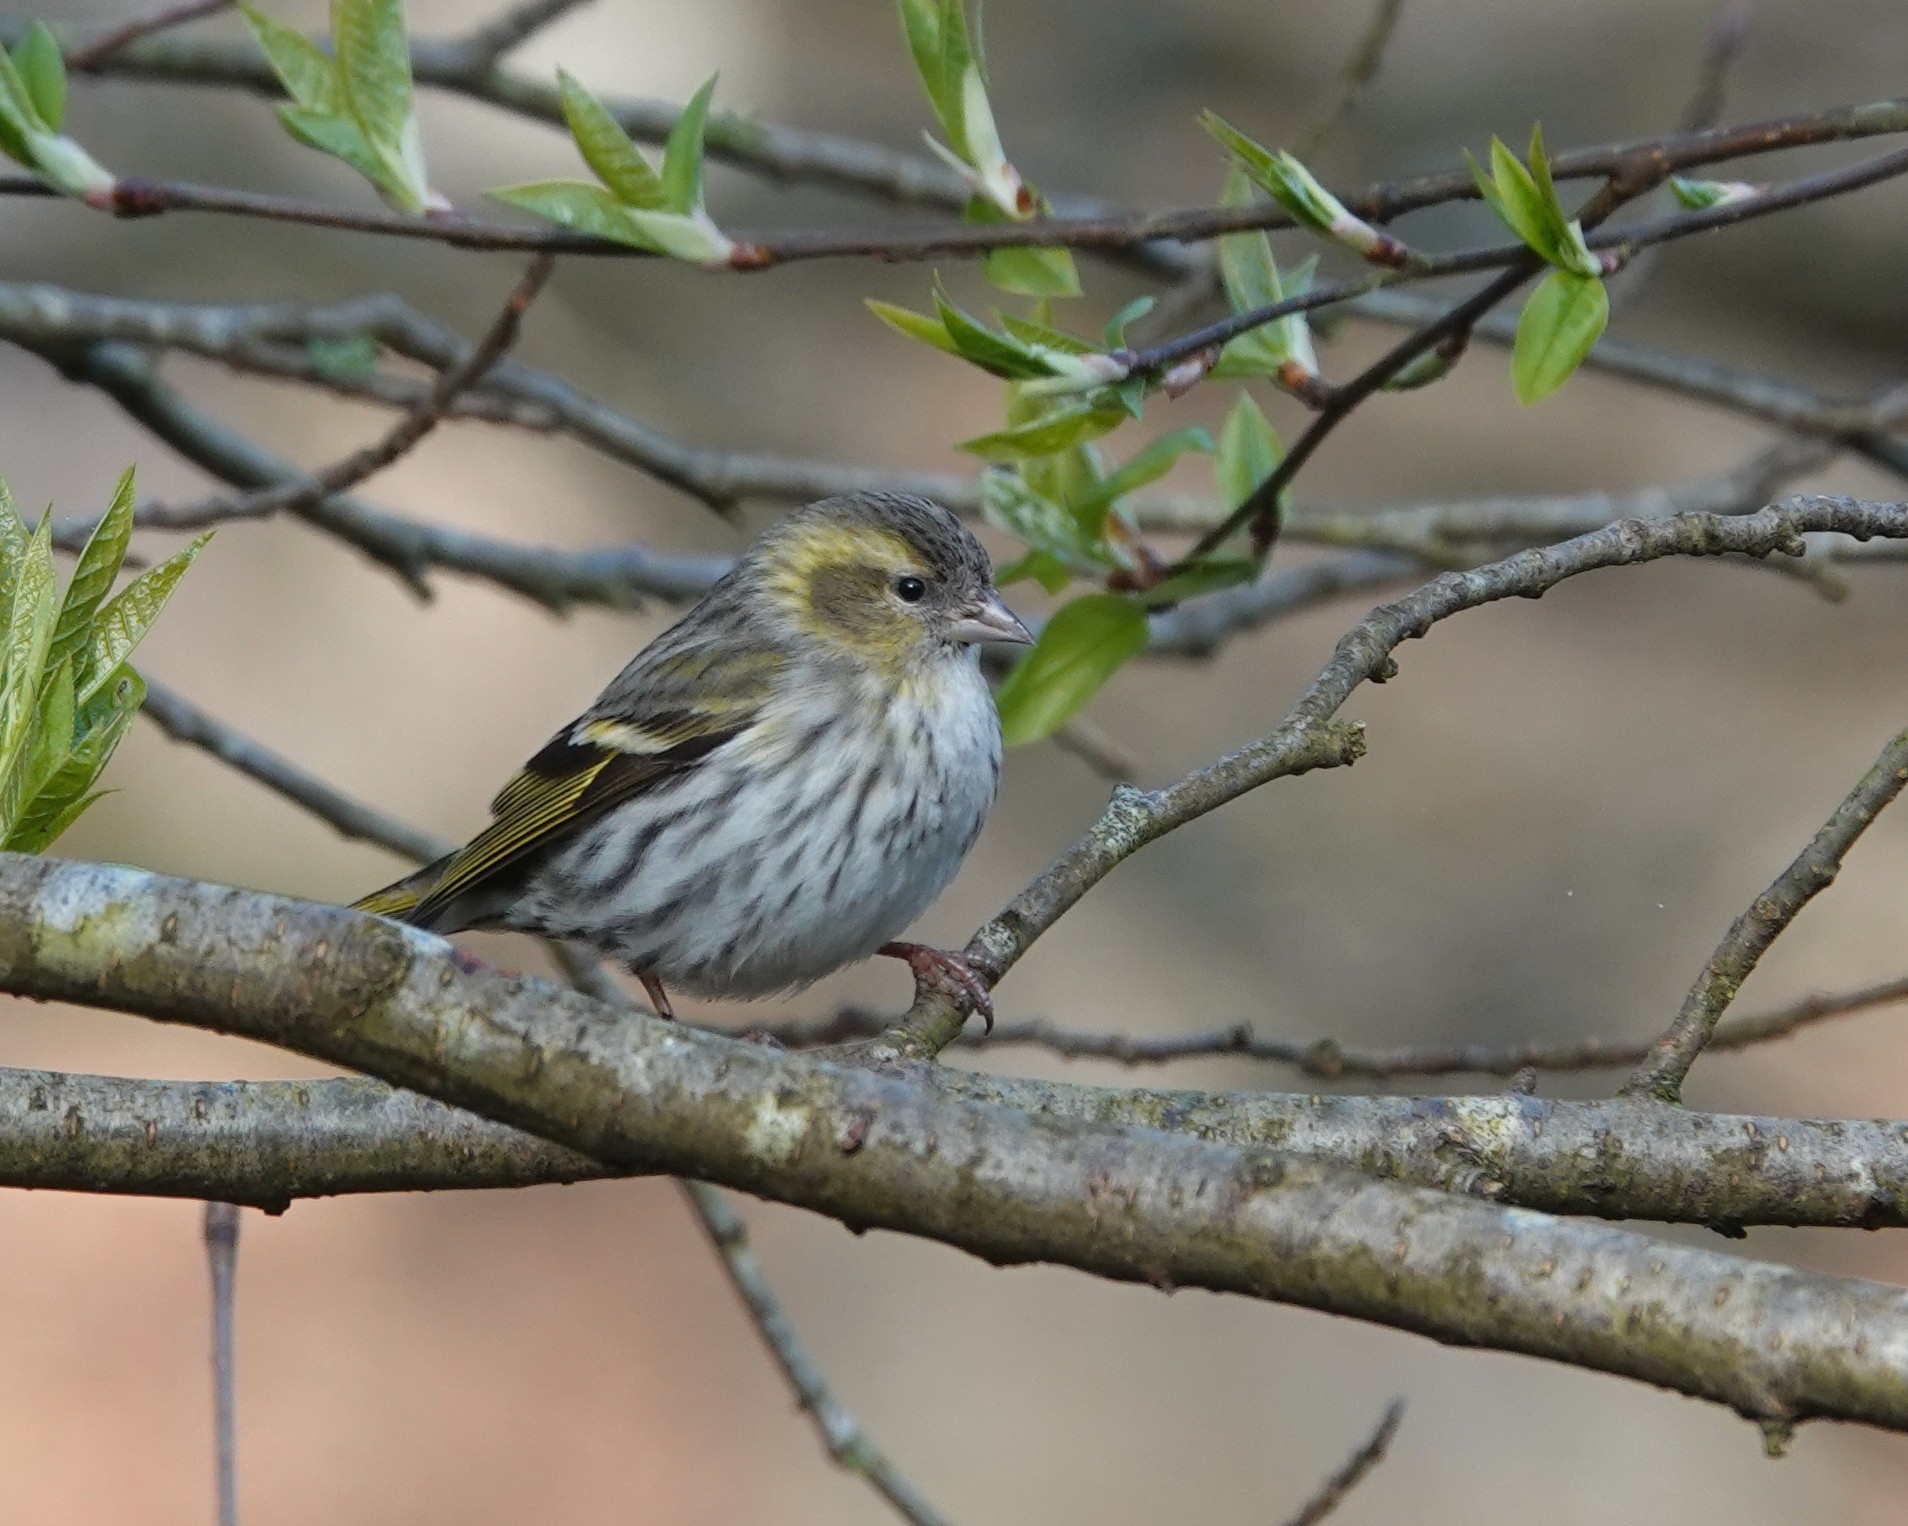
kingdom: Animalia
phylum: Chordata
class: Aves
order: Passeriformes
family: Fringillidae
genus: Spinus
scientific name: Spinus spinus
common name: Eurasian siskin
